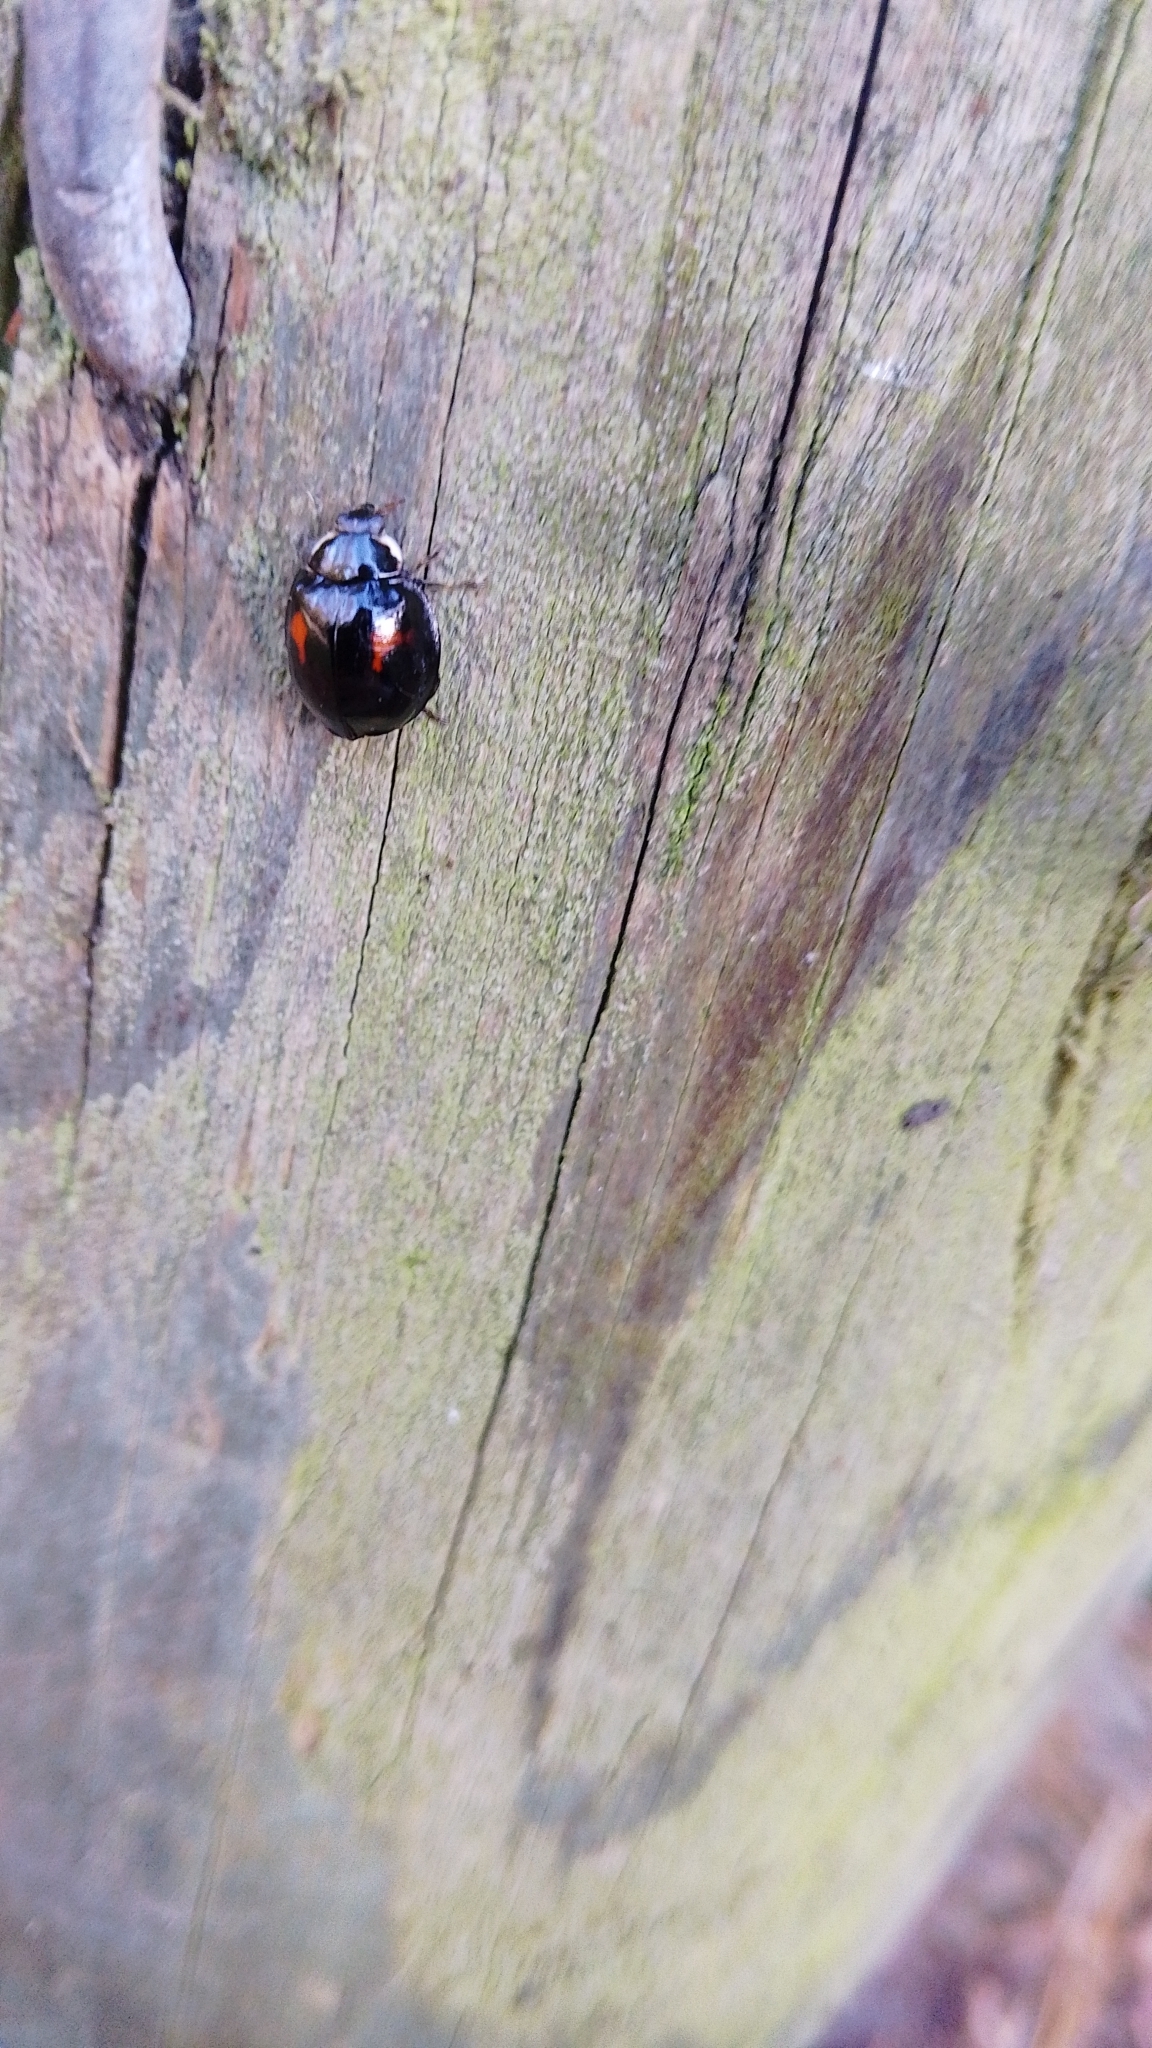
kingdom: Animalia
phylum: Arthropoda
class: Insecta
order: Coleoptera
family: Coccinellidae
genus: Harmonia
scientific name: Harmonia axyridis
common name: Harlequin ladybird
